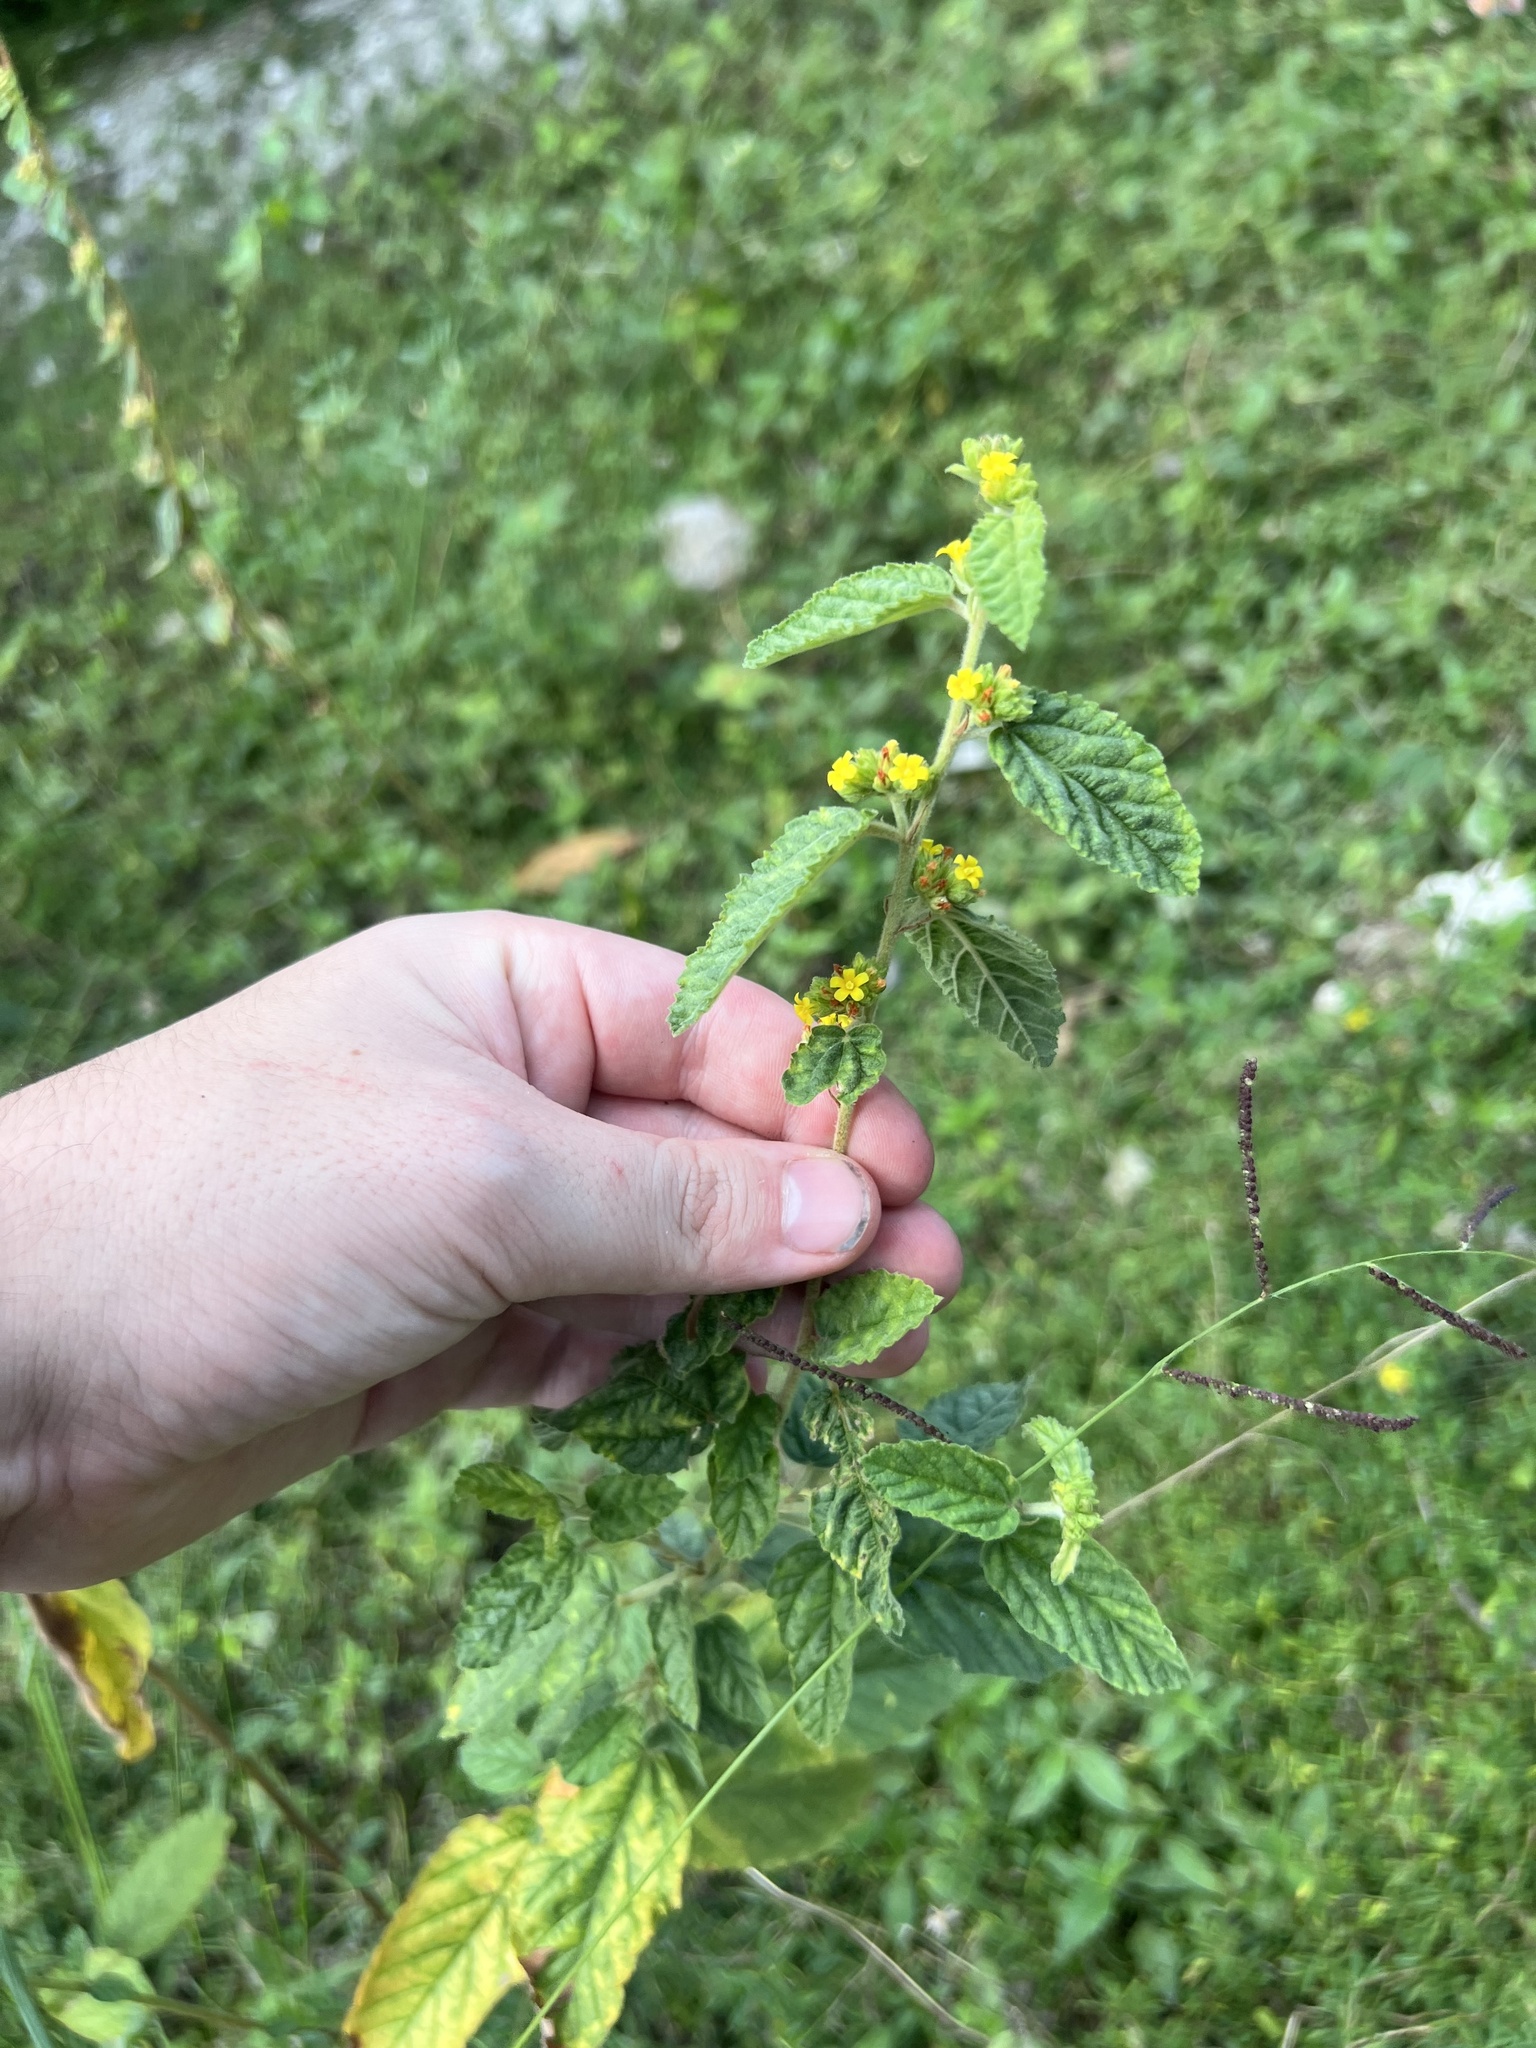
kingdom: Plantae
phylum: Tracheophyta
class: Magnoliopsida
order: Malvales
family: Malvaceae
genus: Waltheria
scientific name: Waltheria indica
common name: Leather-coat
